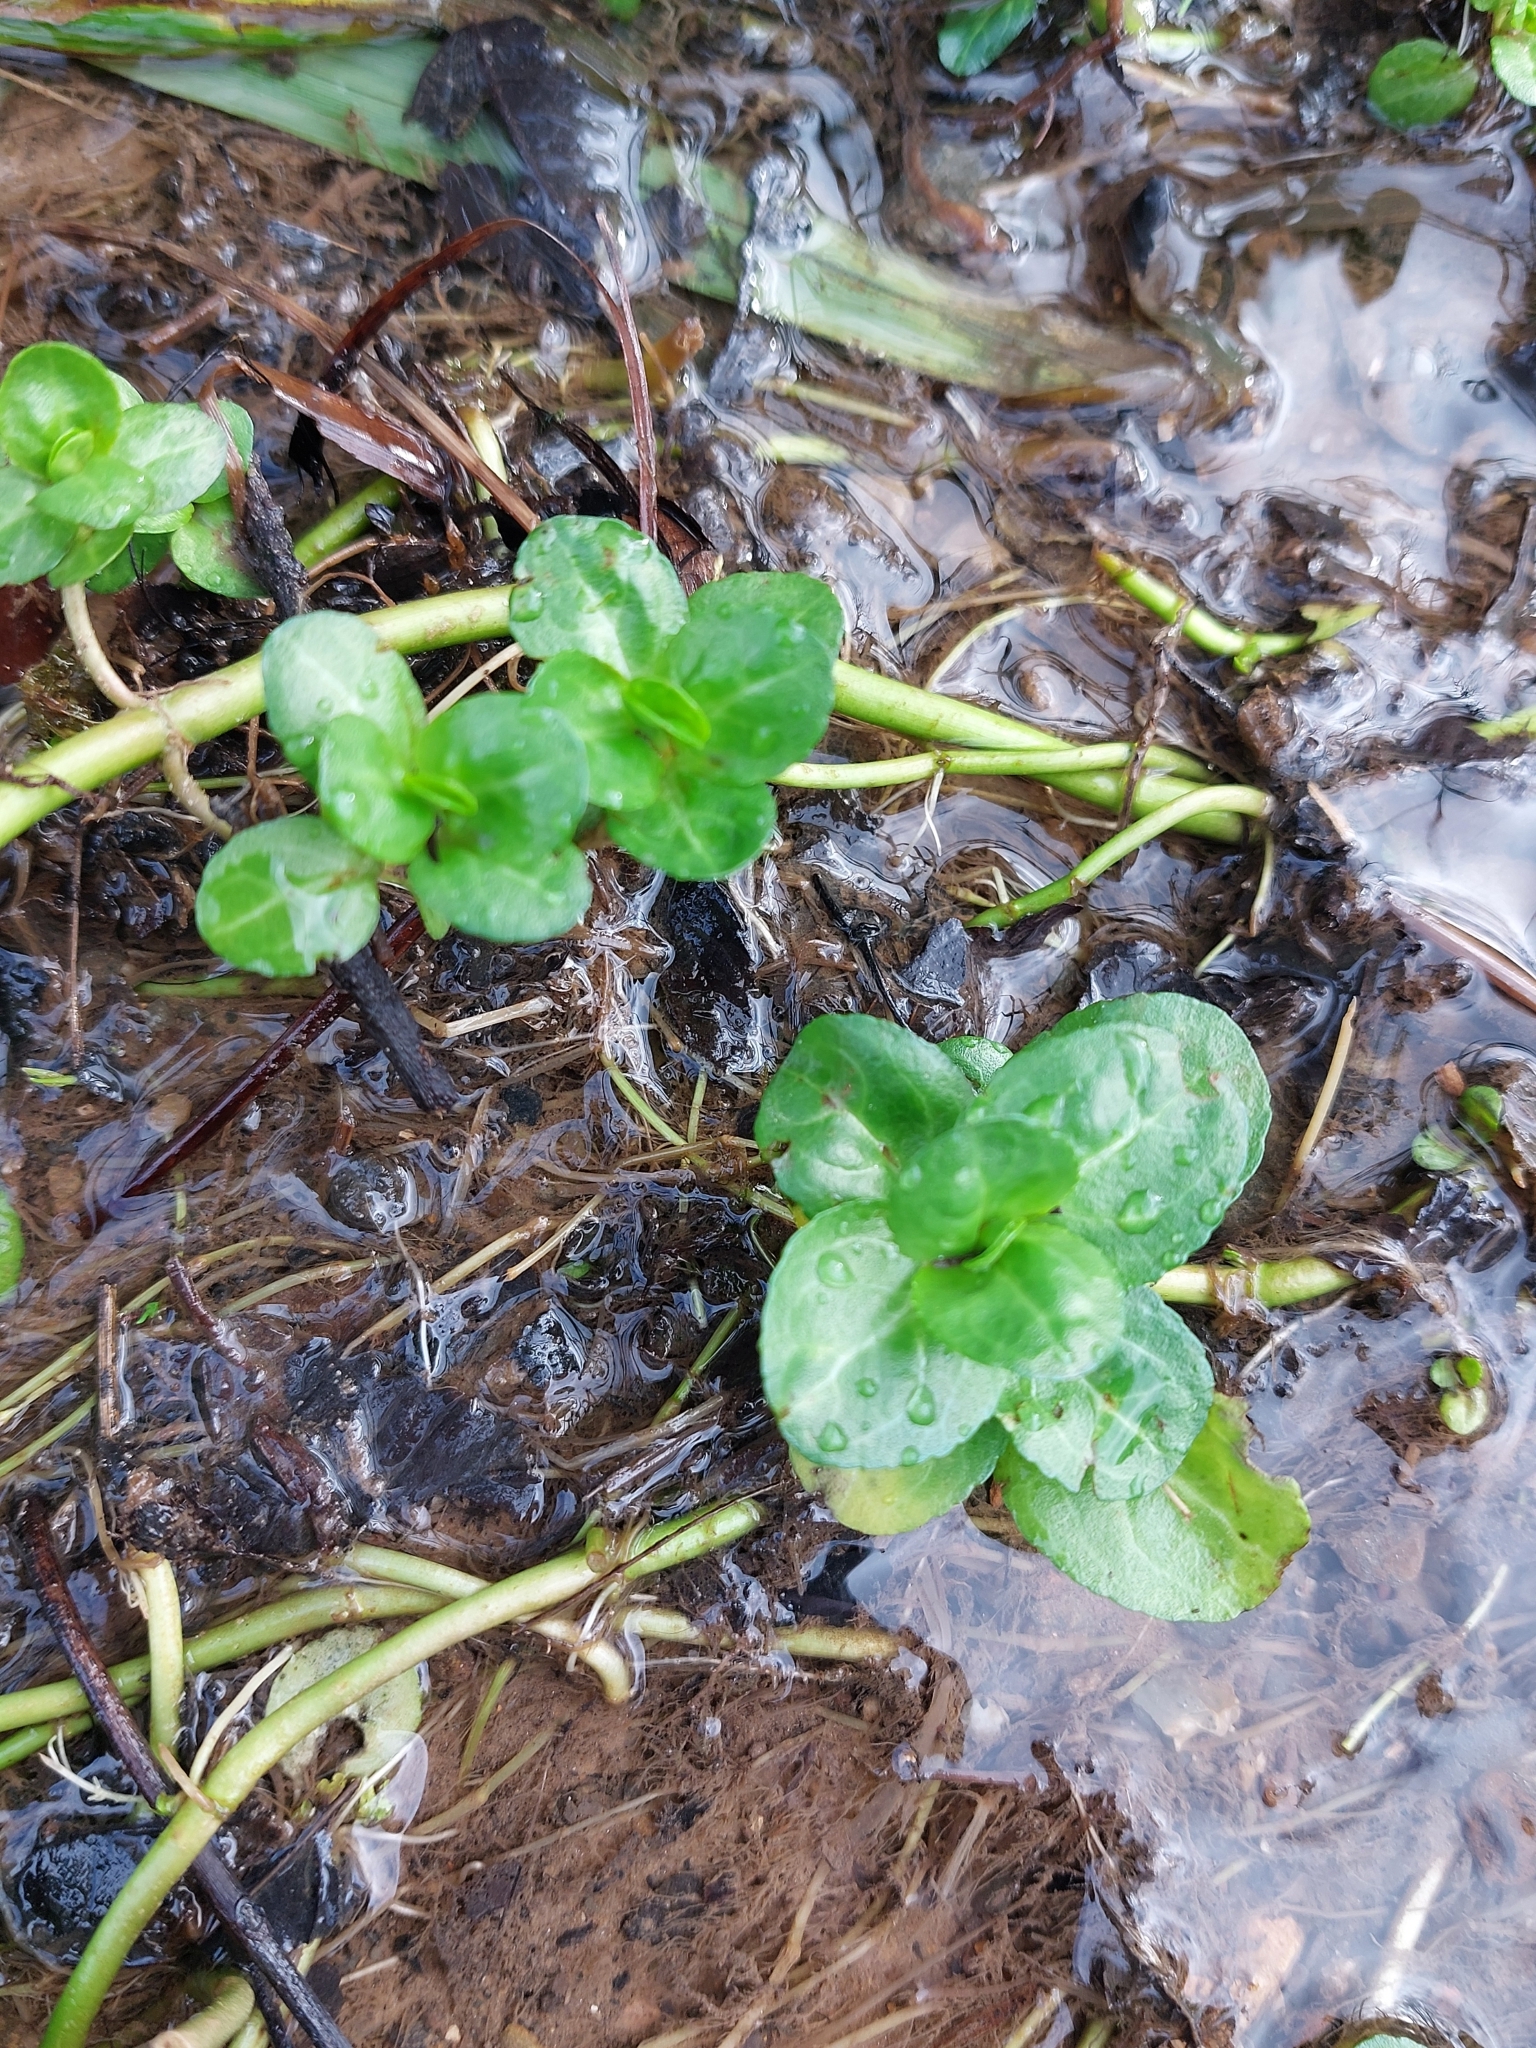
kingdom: Plantae
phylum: Tracheophyta
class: Magnoliopsida
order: Lamiales
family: Plantaginaceae
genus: Veronica
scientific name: Veronica beccabunga
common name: Brooklime
